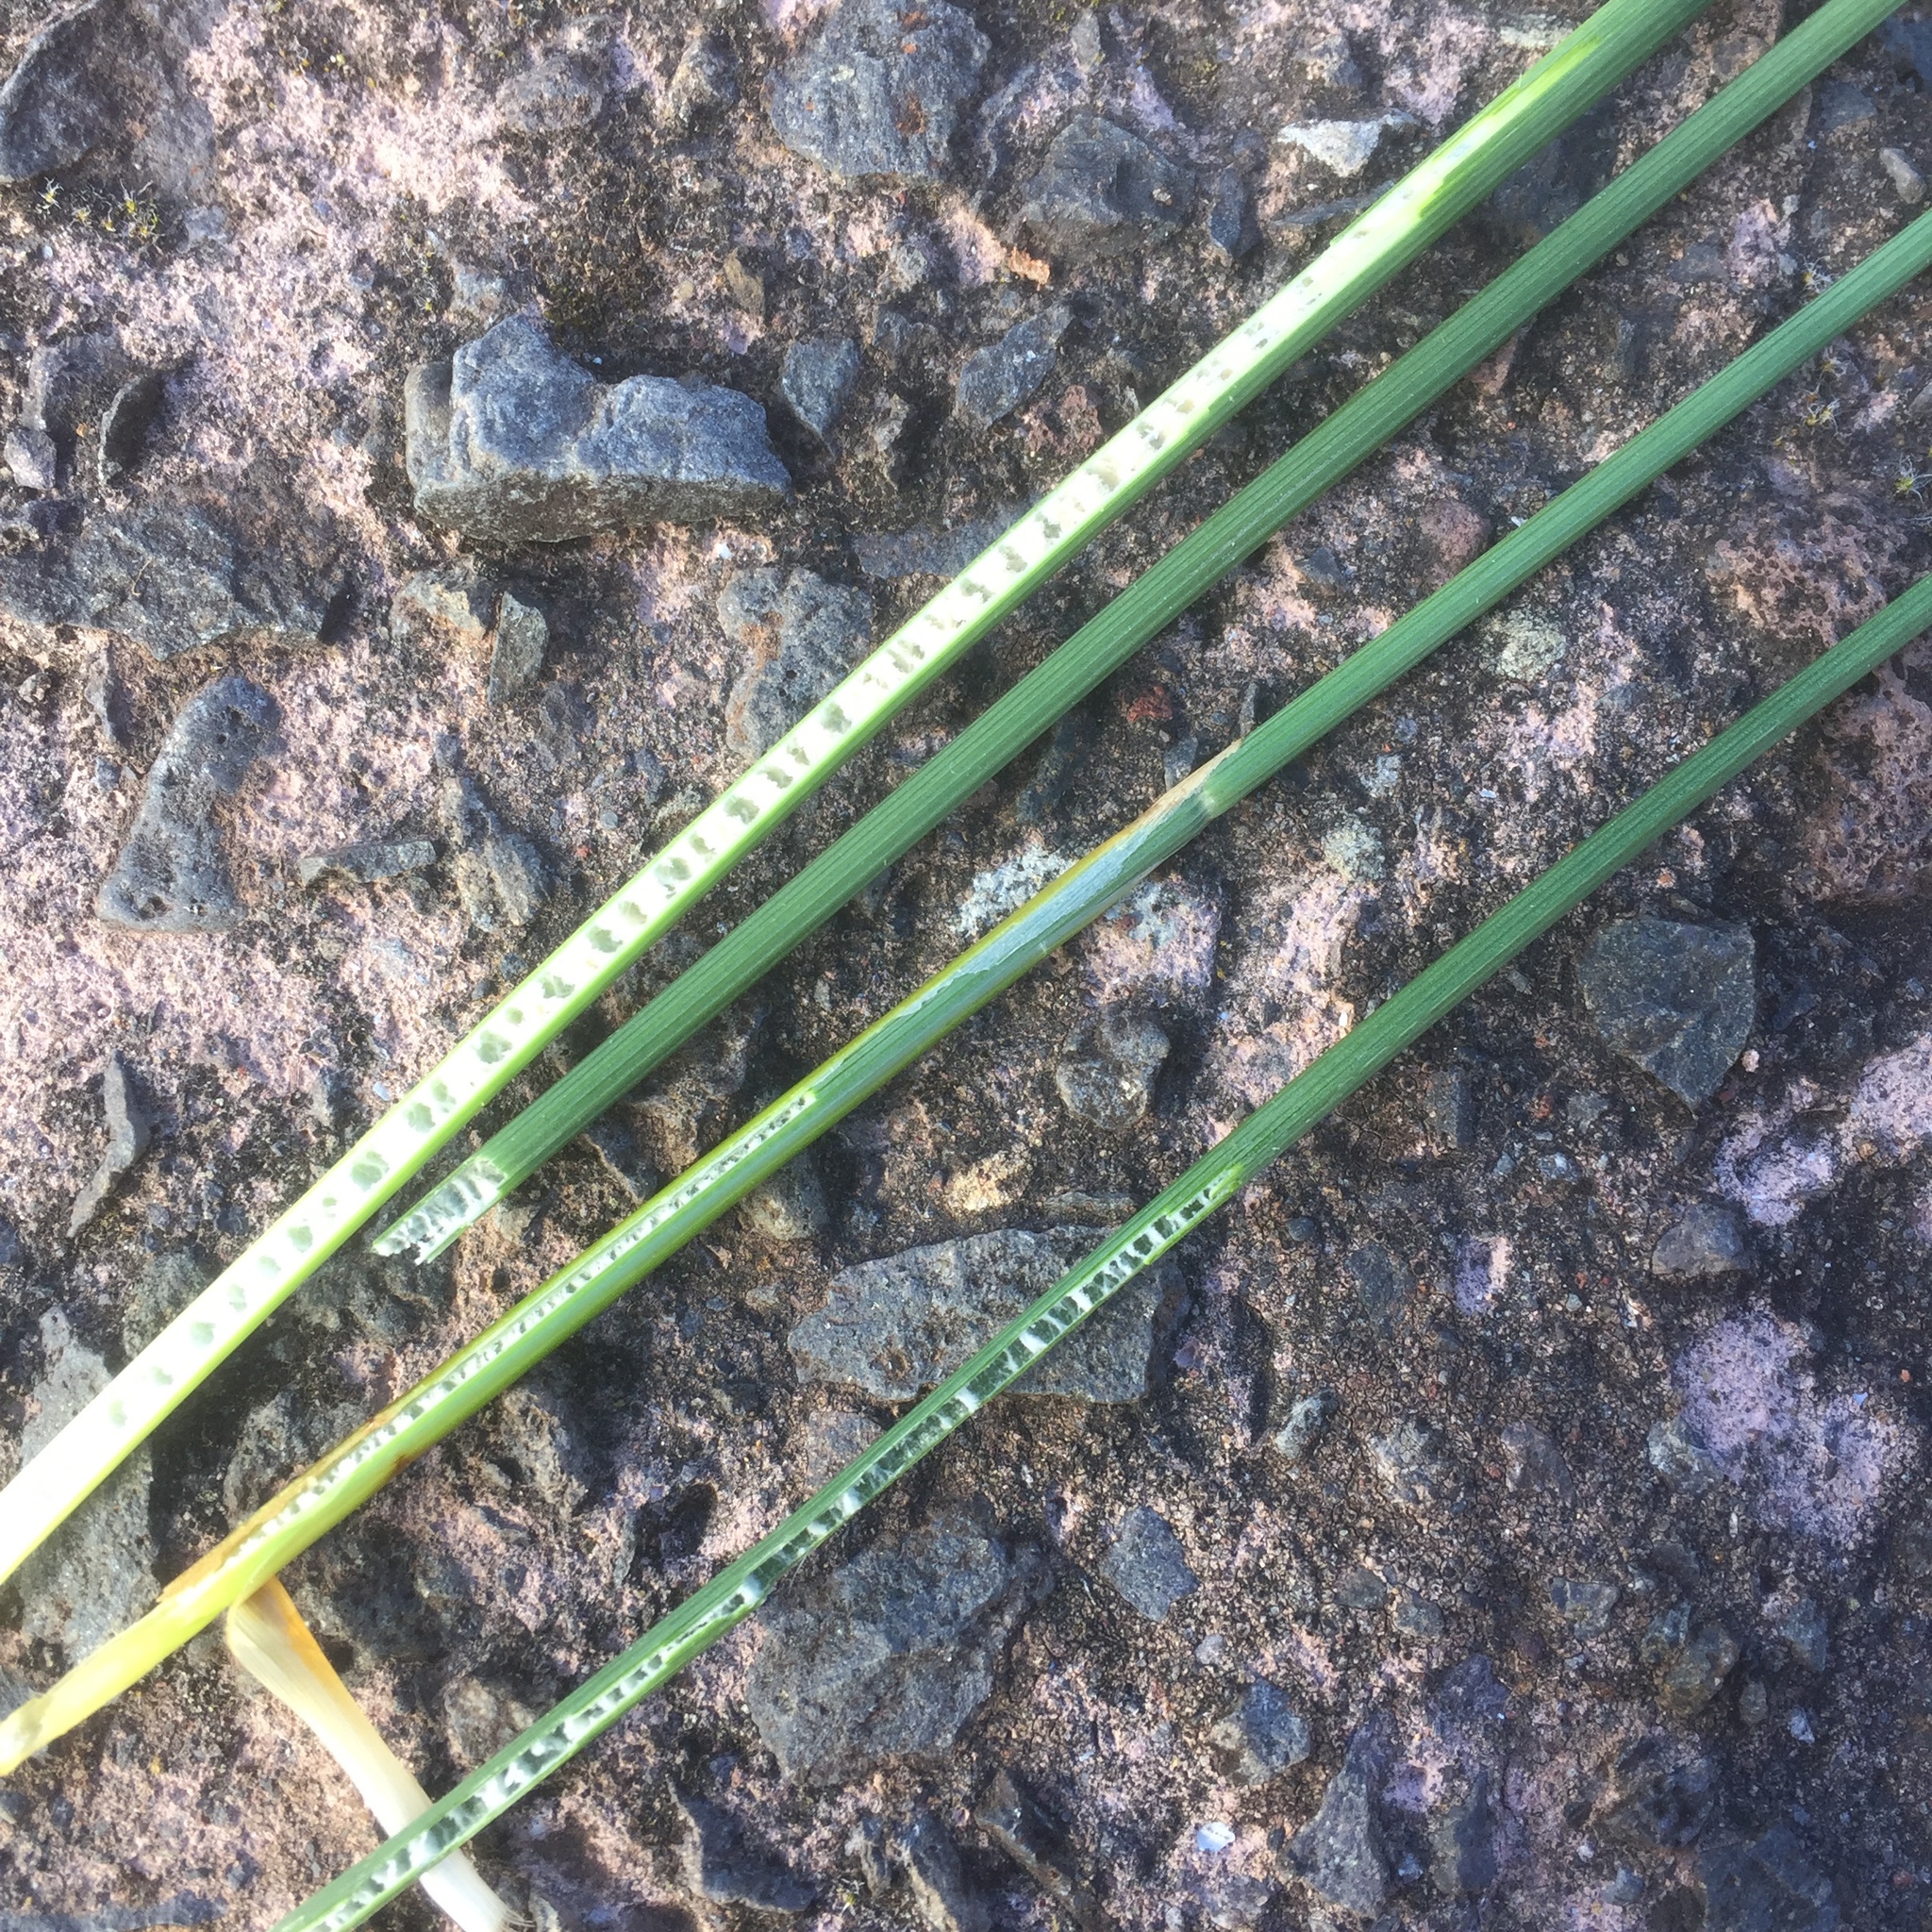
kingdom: Plantae
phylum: Tracheophyta
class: Liliopsida
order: Poales
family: Juncaceae
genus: Juncus
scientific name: Juncus inflexus
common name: Hard rush
